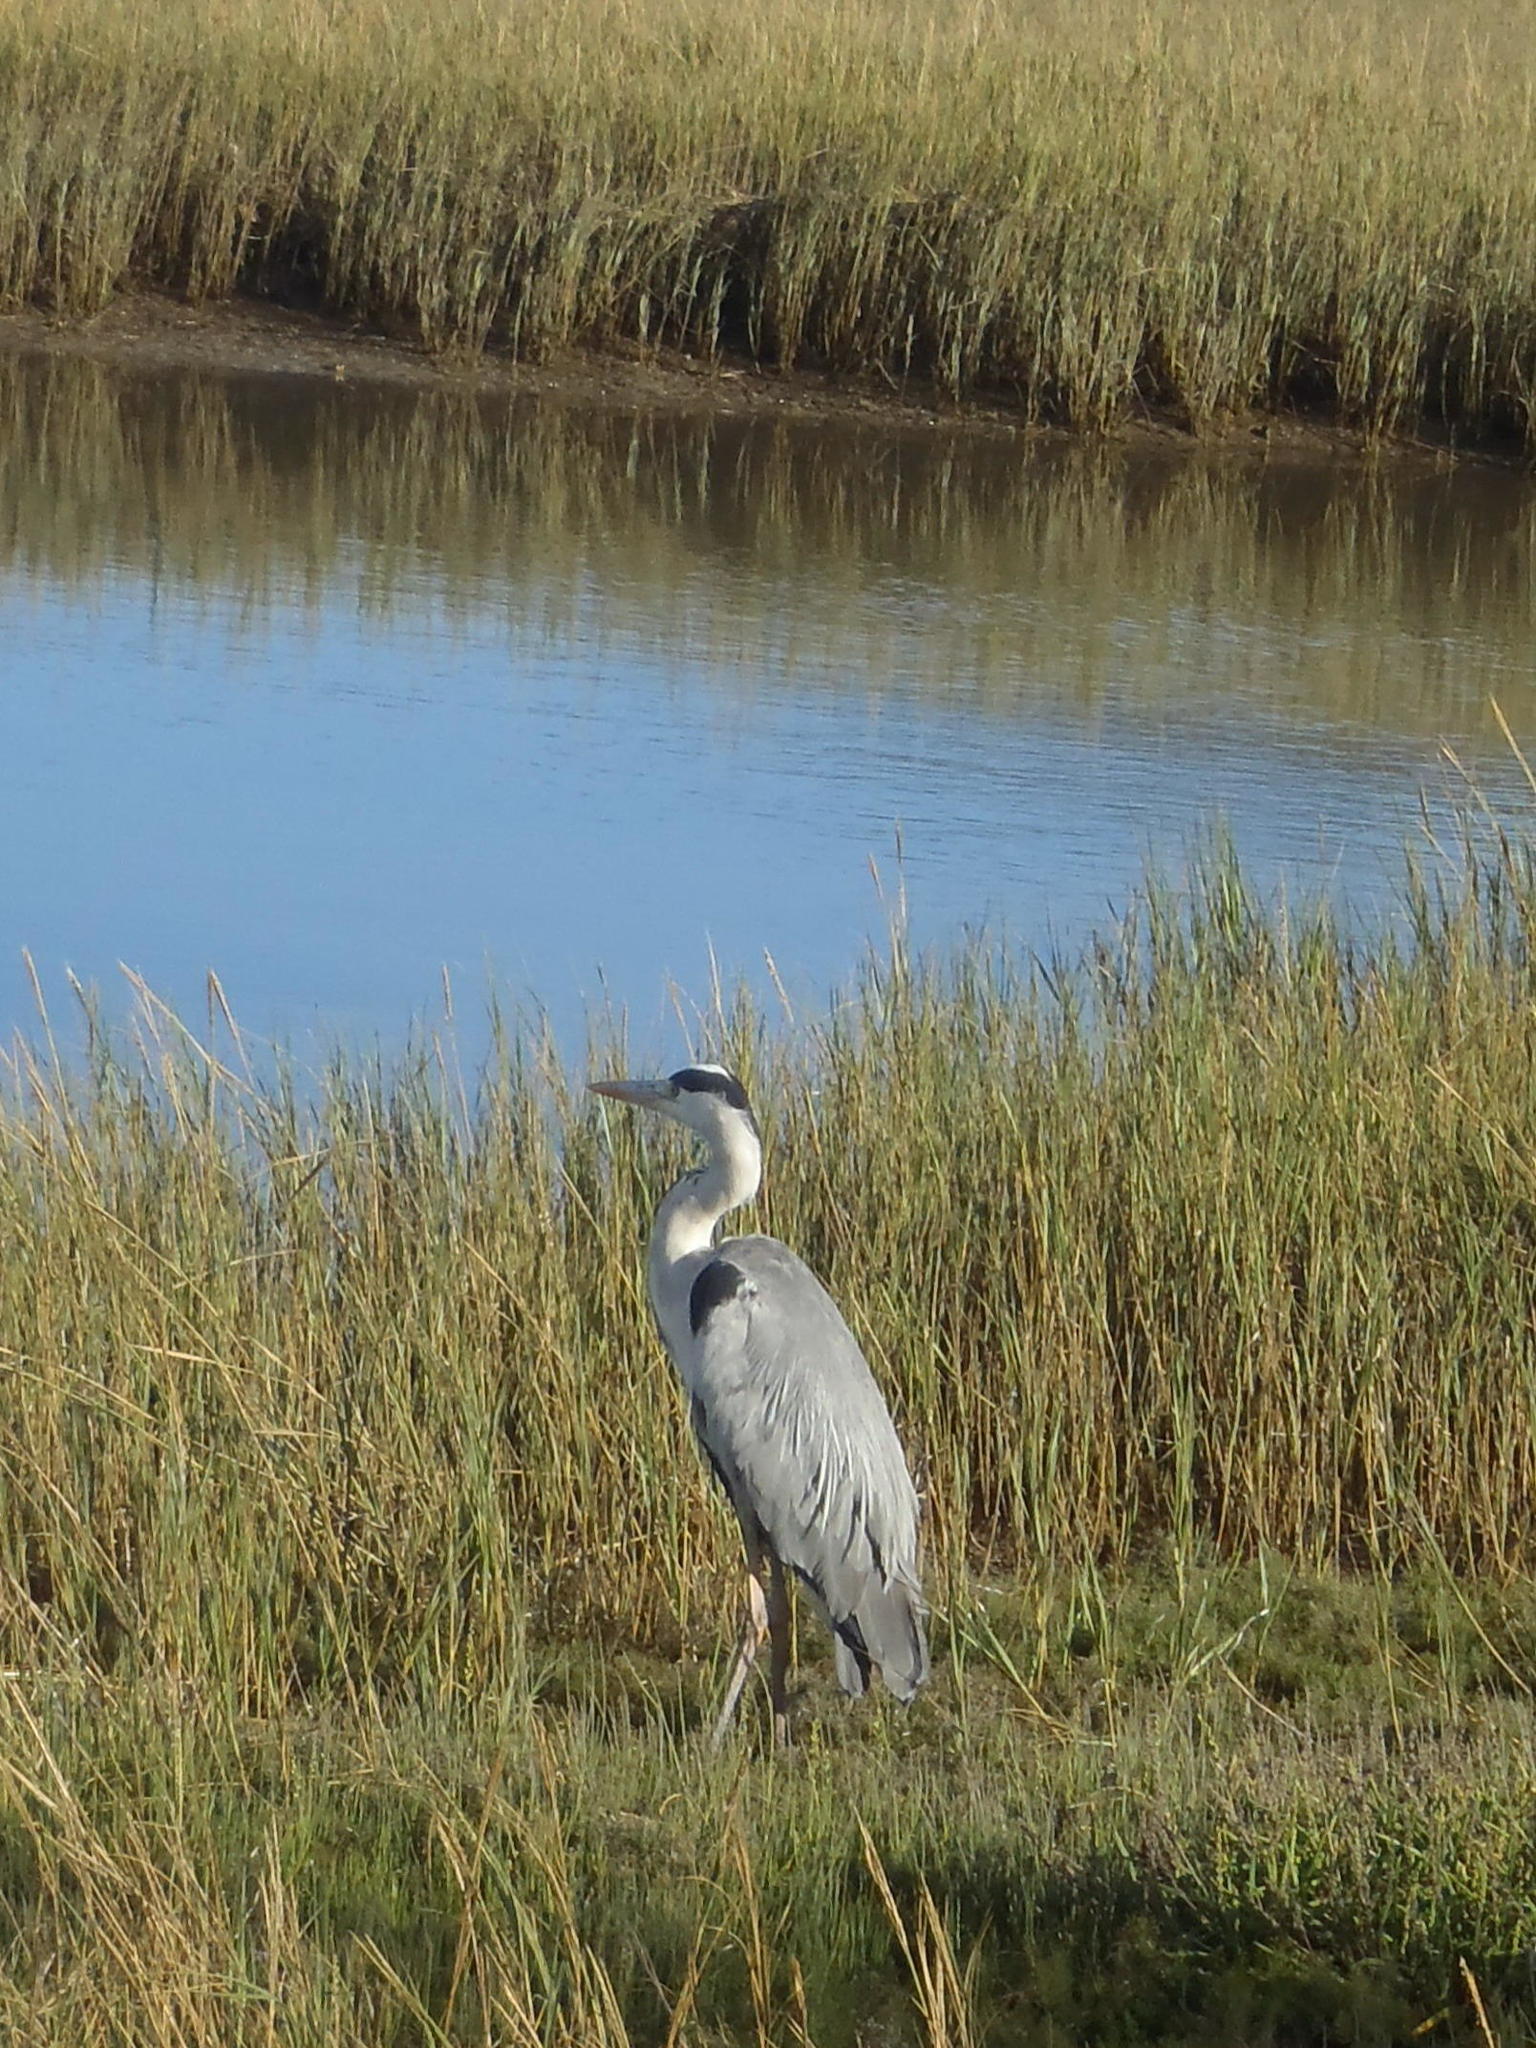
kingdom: Animalia
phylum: Chordata
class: Aves
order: Pelecaniformes
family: Ardeidae
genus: Ardea
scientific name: Ardea cinerea
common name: Grey heron
